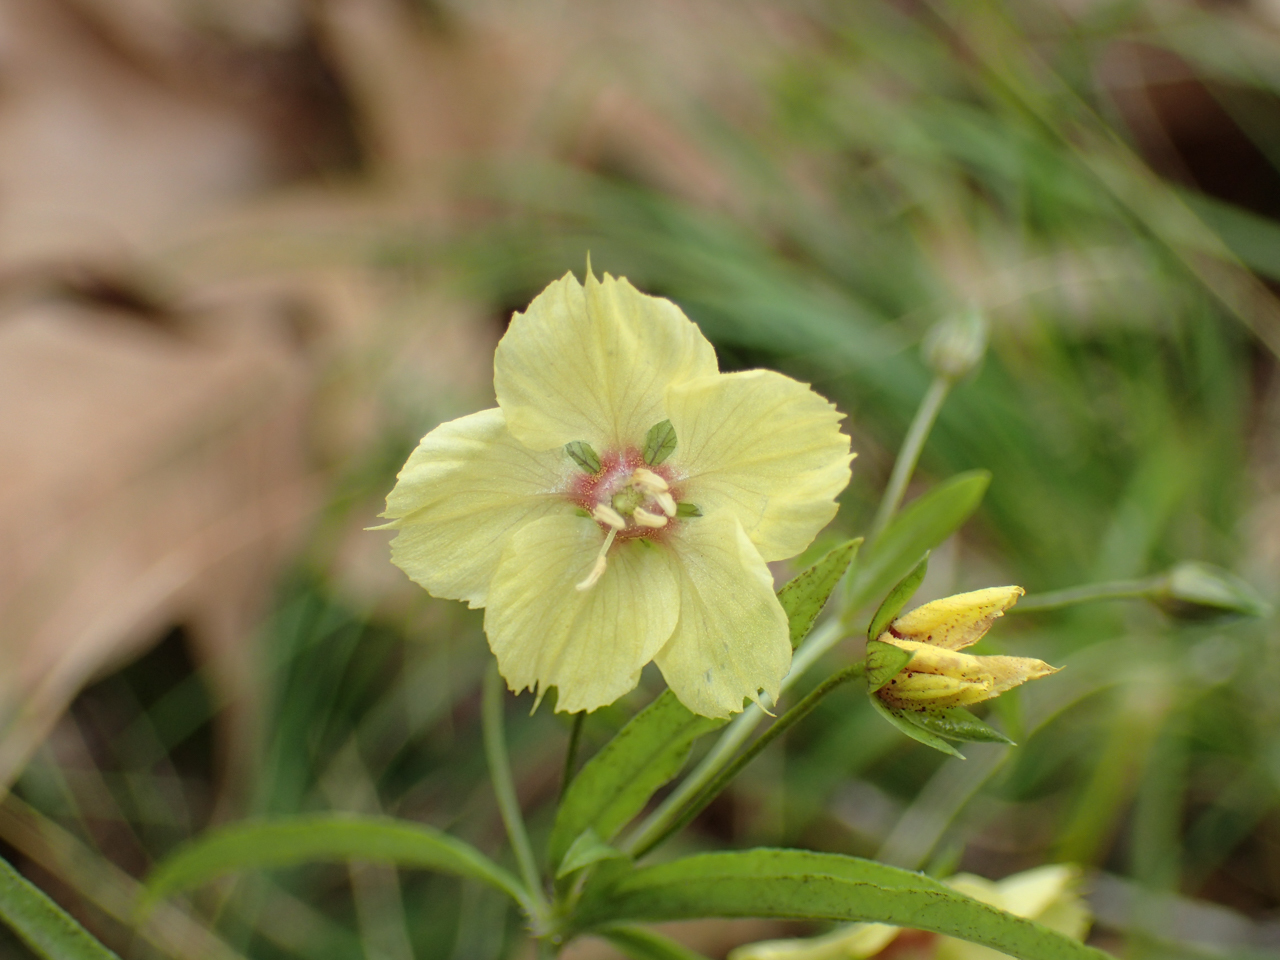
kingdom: Plantae
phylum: Tracheophyta
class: Magnoliopsida
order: Ericales
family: Primulaceae
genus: Lysimachia
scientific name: Lysimachia lanceolata
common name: Lance-leaved loosestrife
